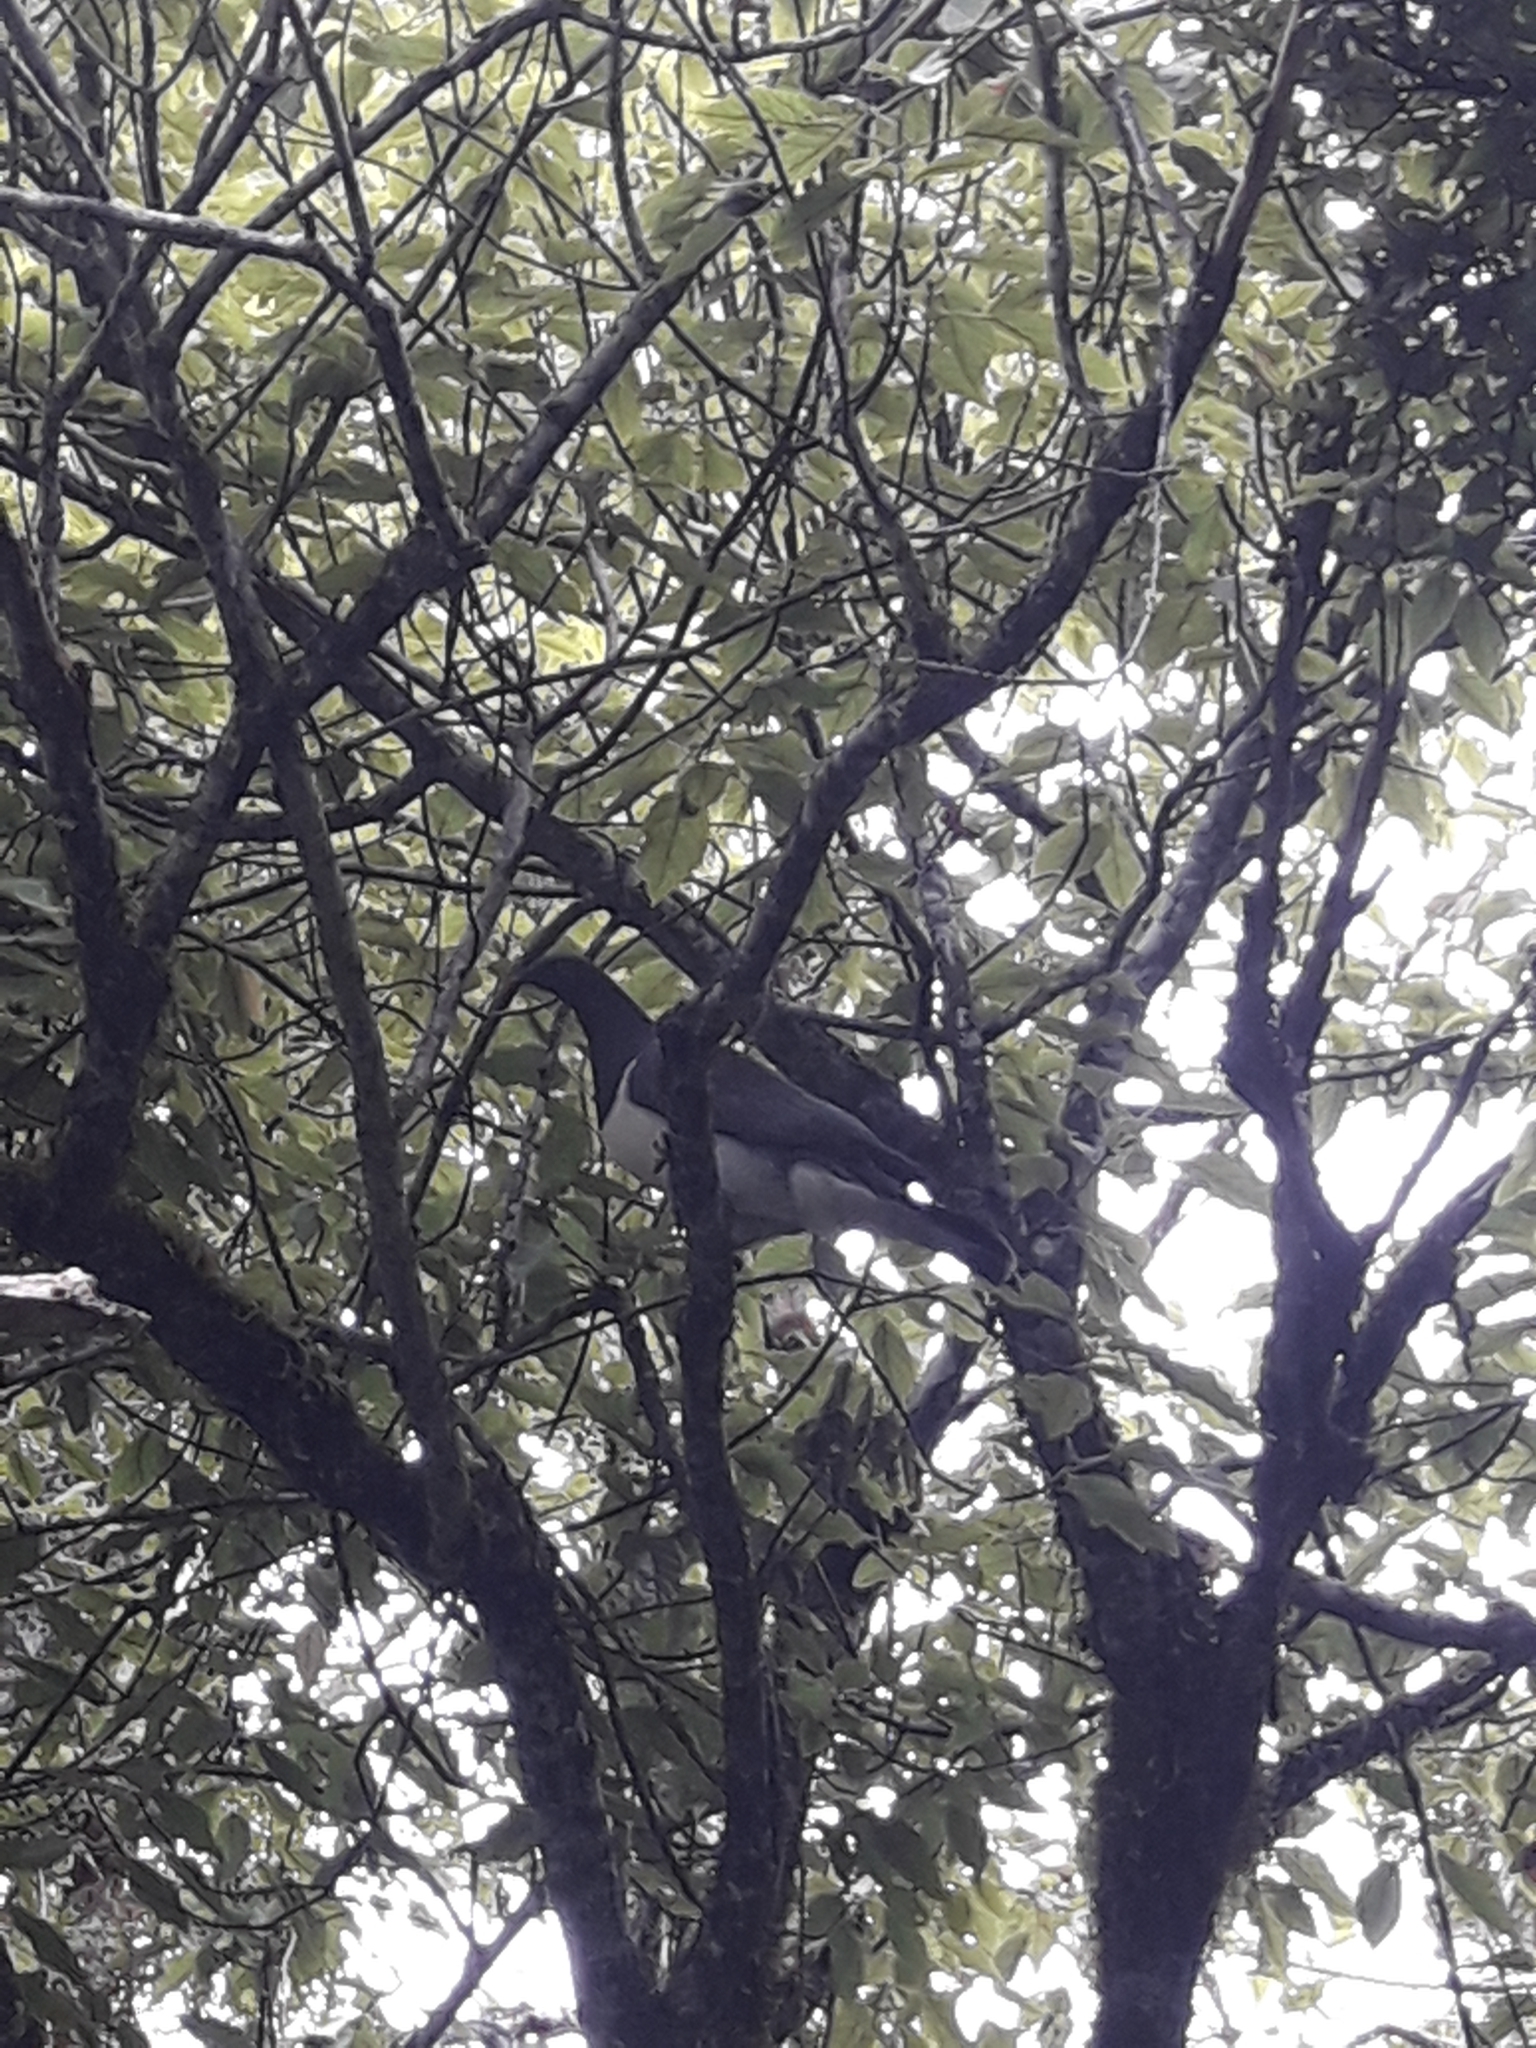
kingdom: Animalia
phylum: Chordata
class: Aves
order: Columbiformes
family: Columbidae
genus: Hemiphaga
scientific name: Hemiphaga novaeseelandiae
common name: New zealand pigeon
